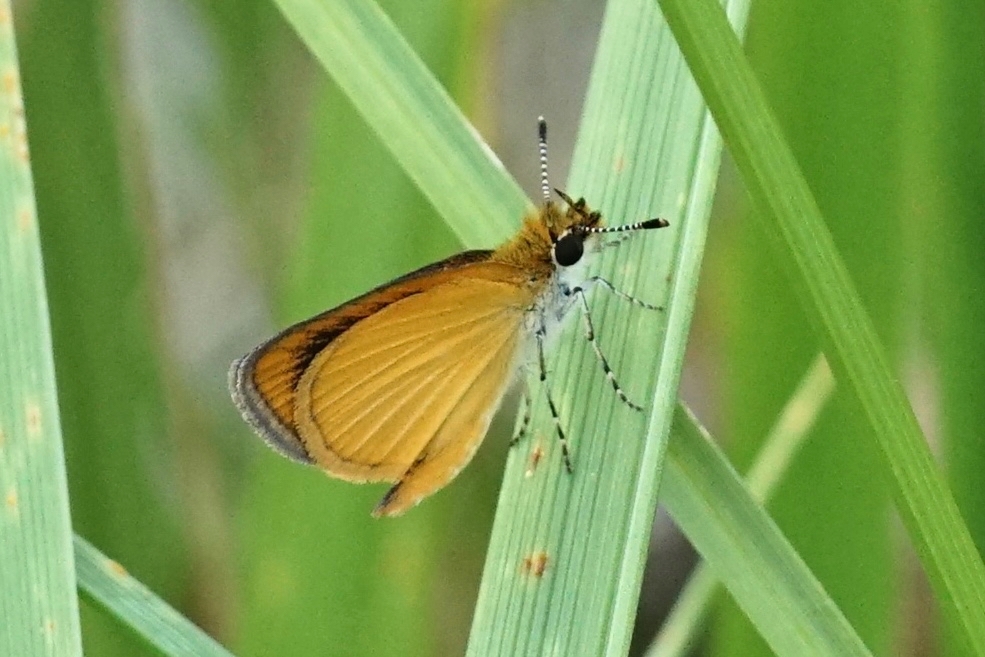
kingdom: Animalia
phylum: Arthropoda
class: Insecta
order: Lepidoptera
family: Hesperiidae
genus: Ancyloxypha
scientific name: Ancyloxypha numitor
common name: Least skipper
